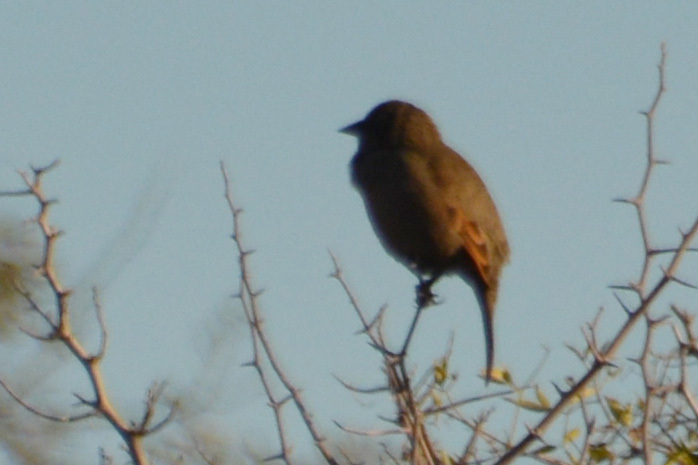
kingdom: Animalia
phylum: Chordata
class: Aves
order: Passeriformes
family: Icteridae
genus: Agelaioides
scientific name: Agelaioides badius
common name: Baywing
